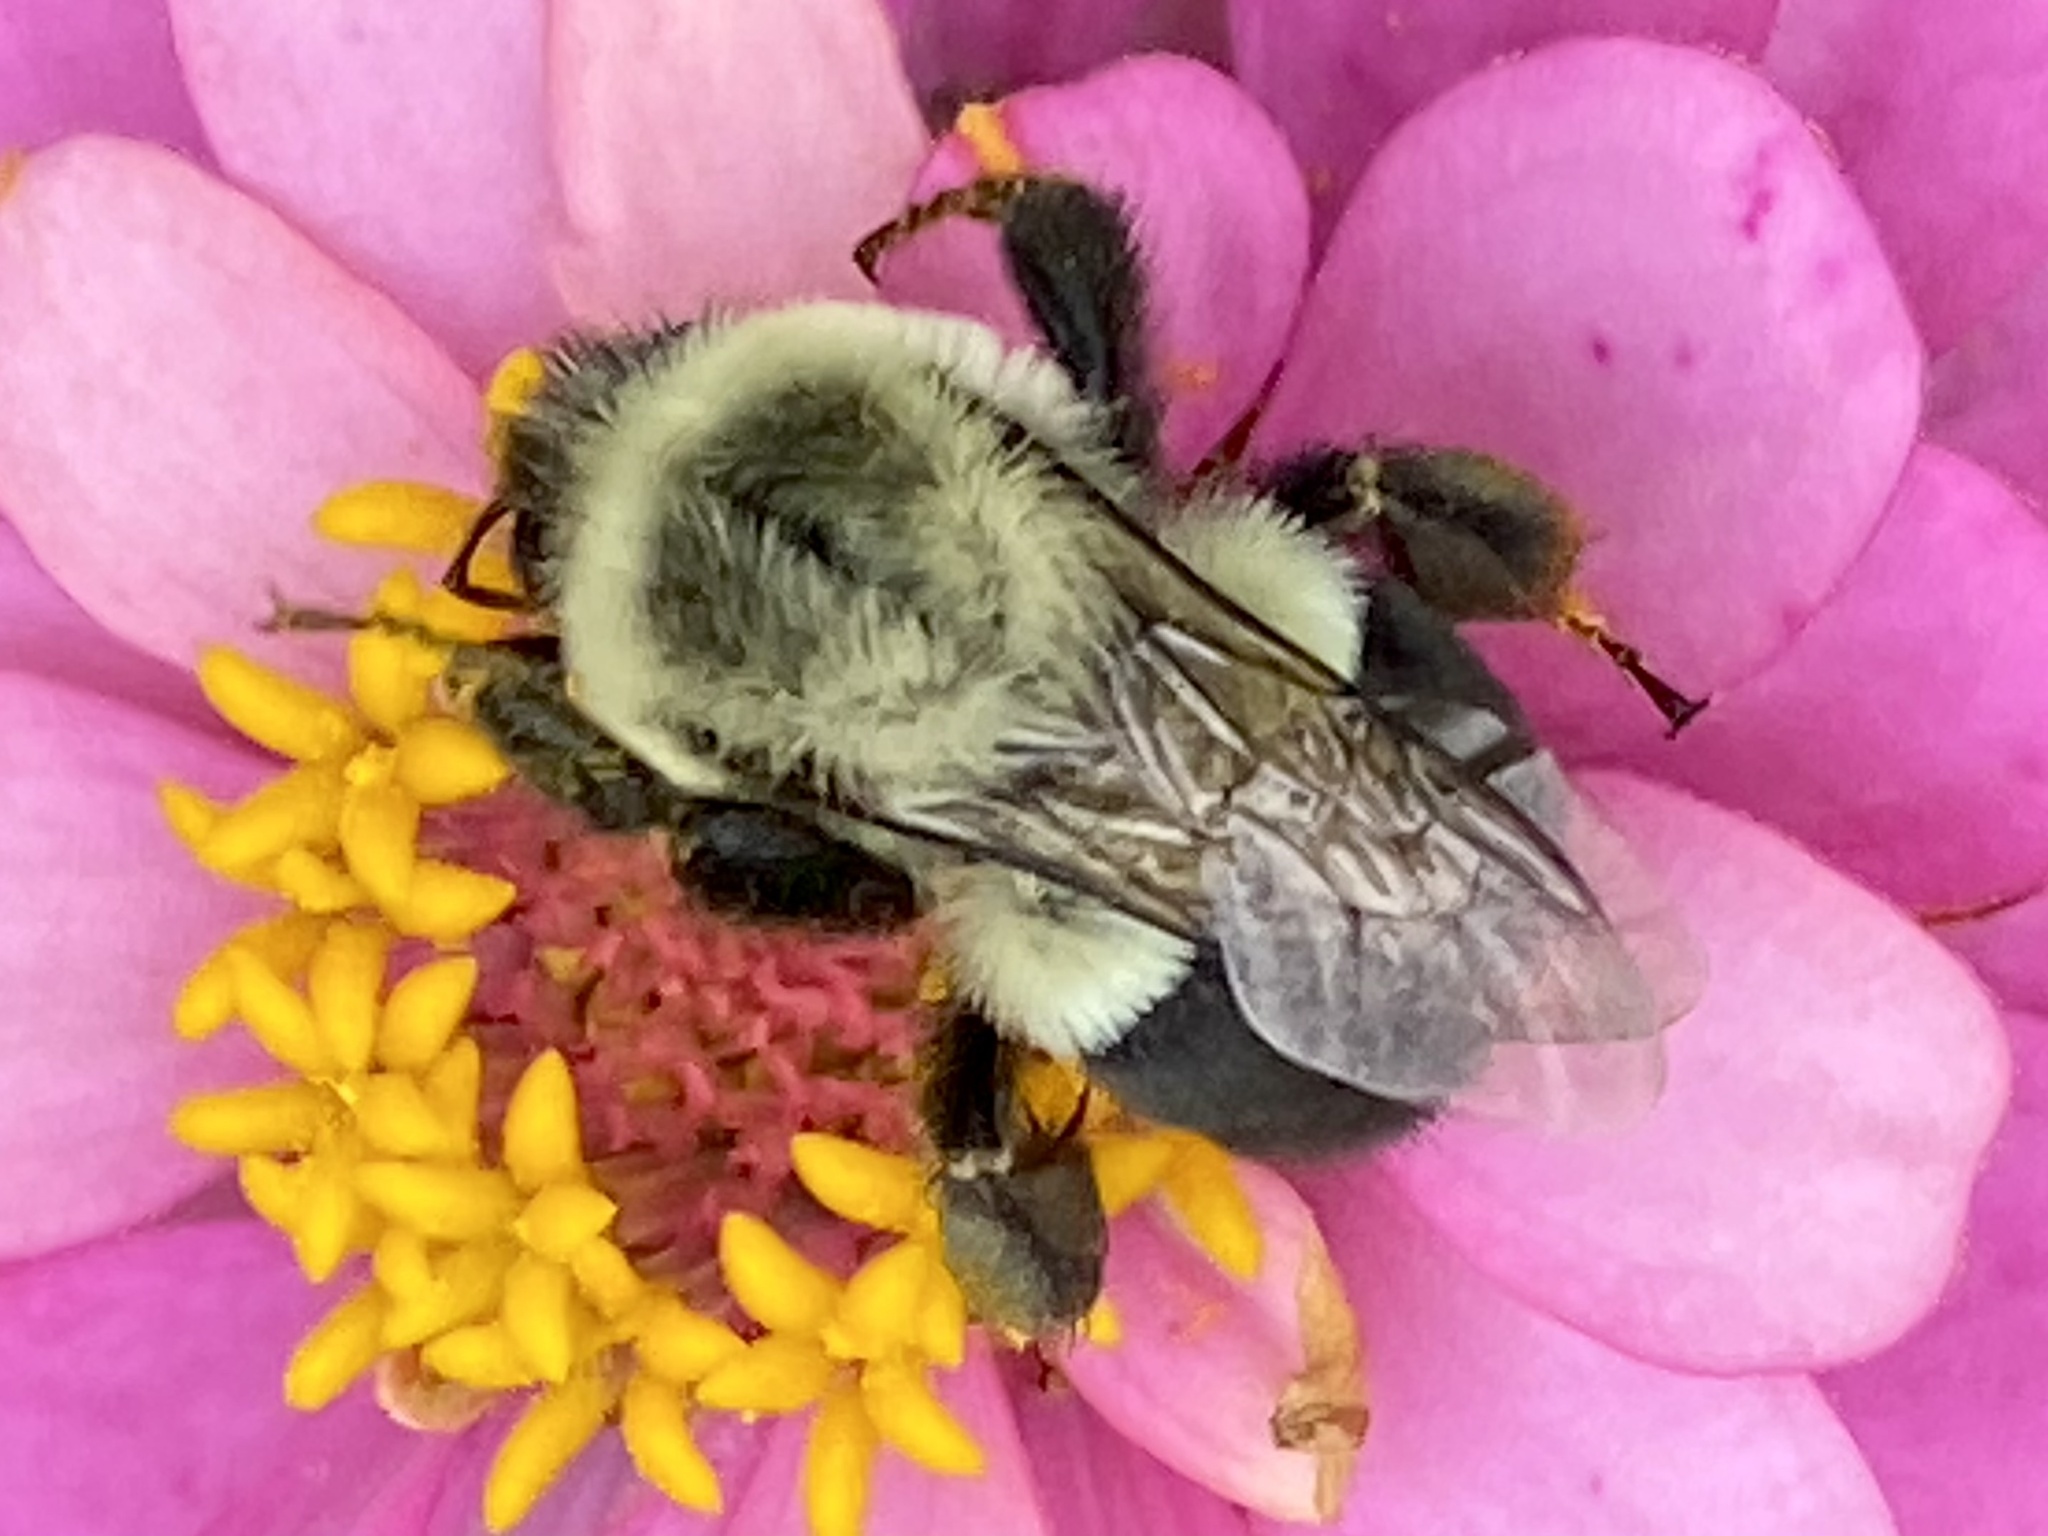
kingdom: Animalia
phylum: Arthropoda
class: Insecta
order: Hymenoptera
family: Apidae
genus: Bombus
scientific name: Bombus impatiens
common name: Common eastern bumble bee
